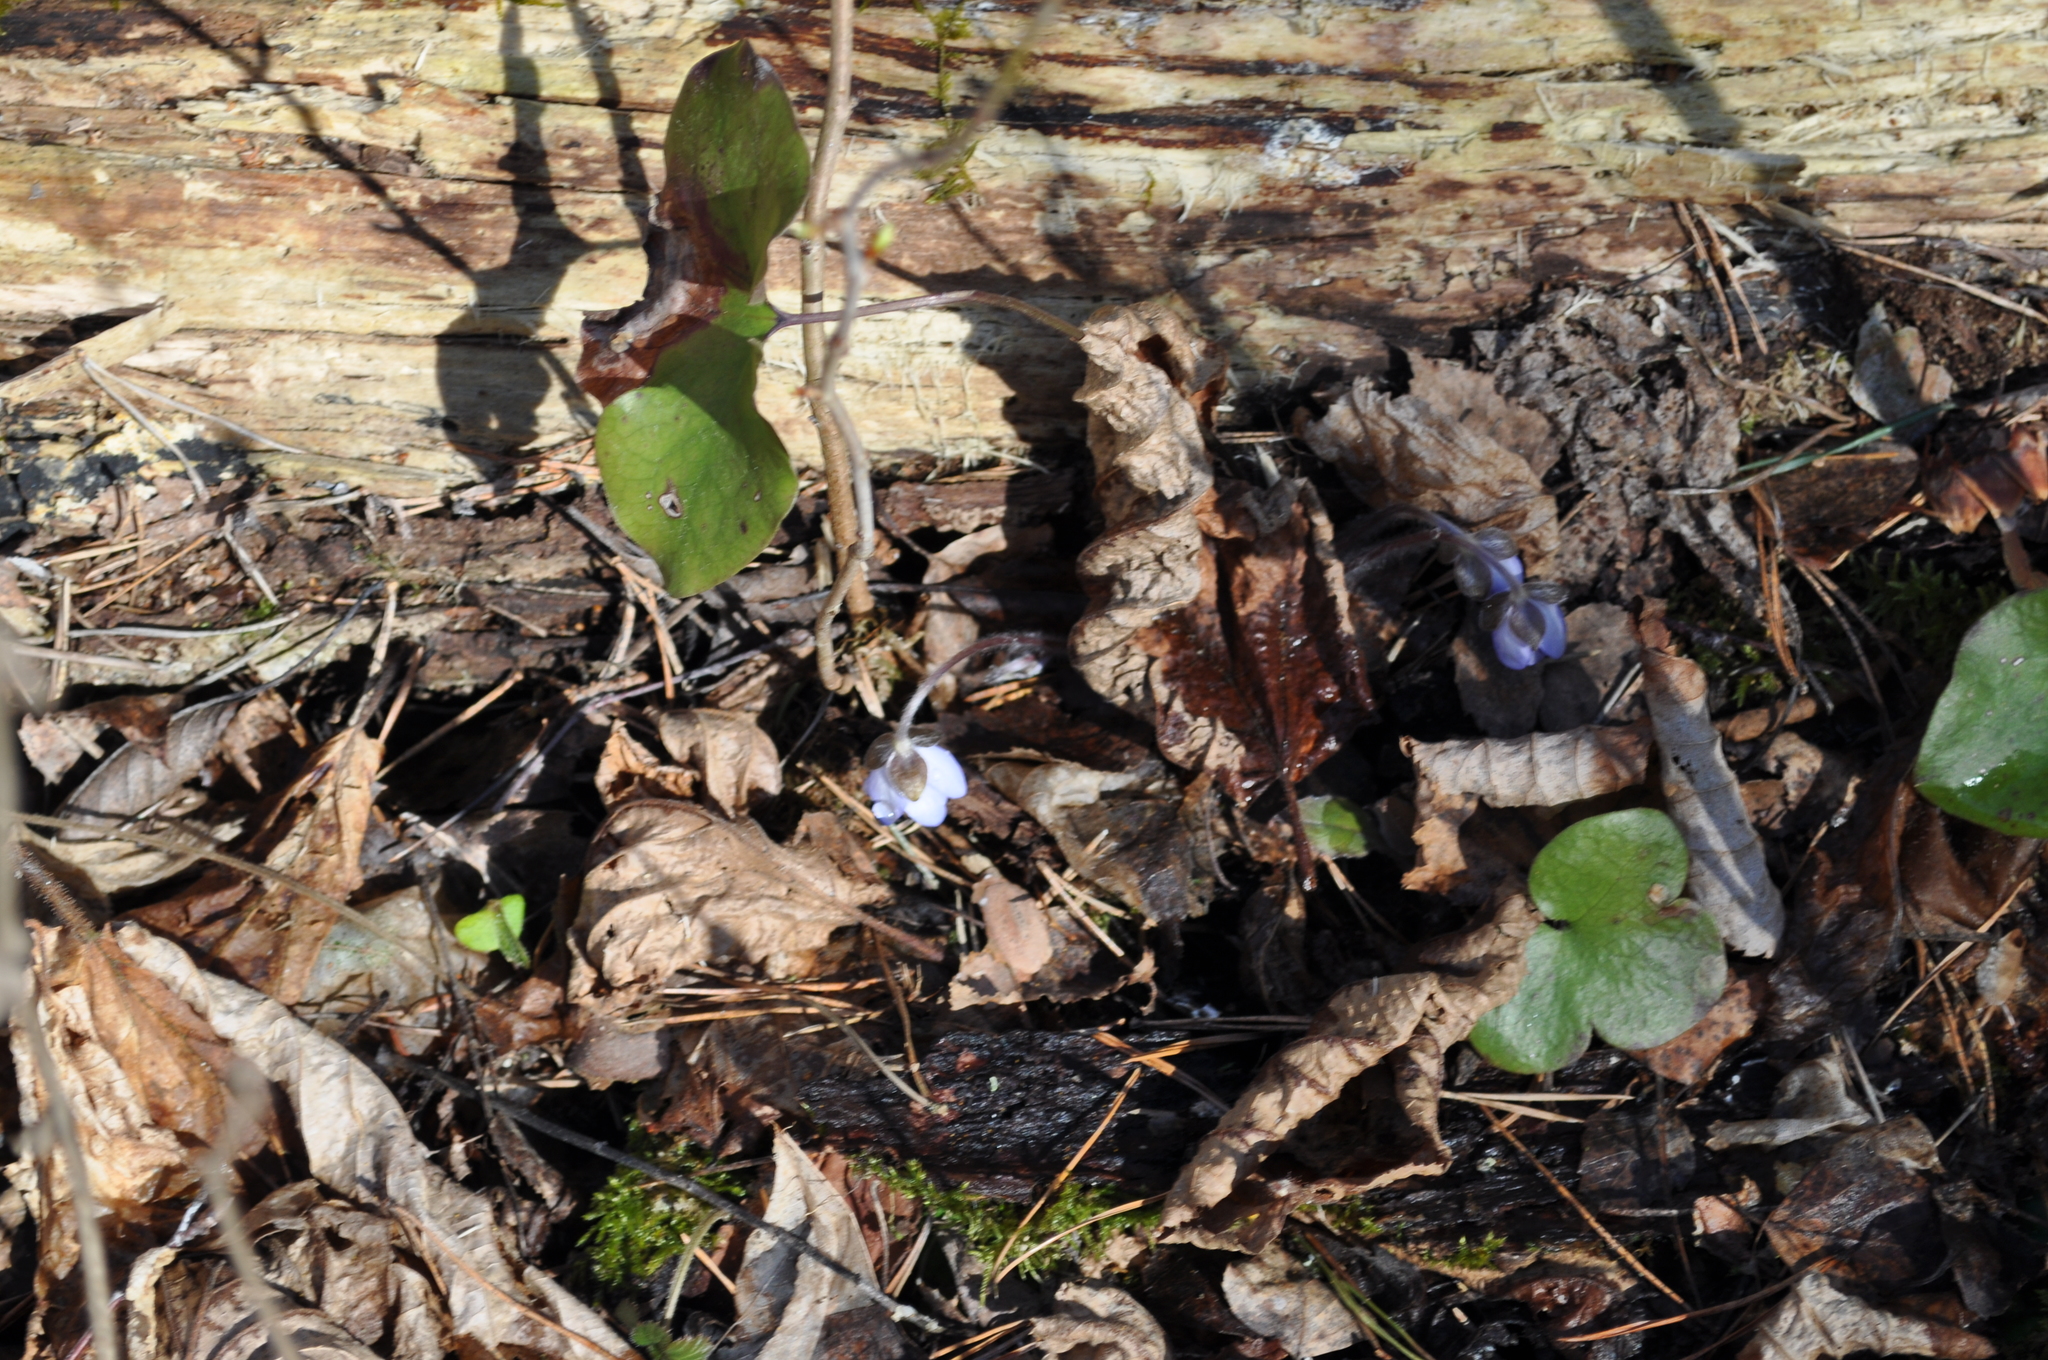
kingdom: Plantae
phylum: Tracheophyta
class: Magnoliopsida
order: Ranunculales
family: Ranunculaceae
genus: Hepatica
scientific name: Hepatica nobilis
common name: Liverleaf
